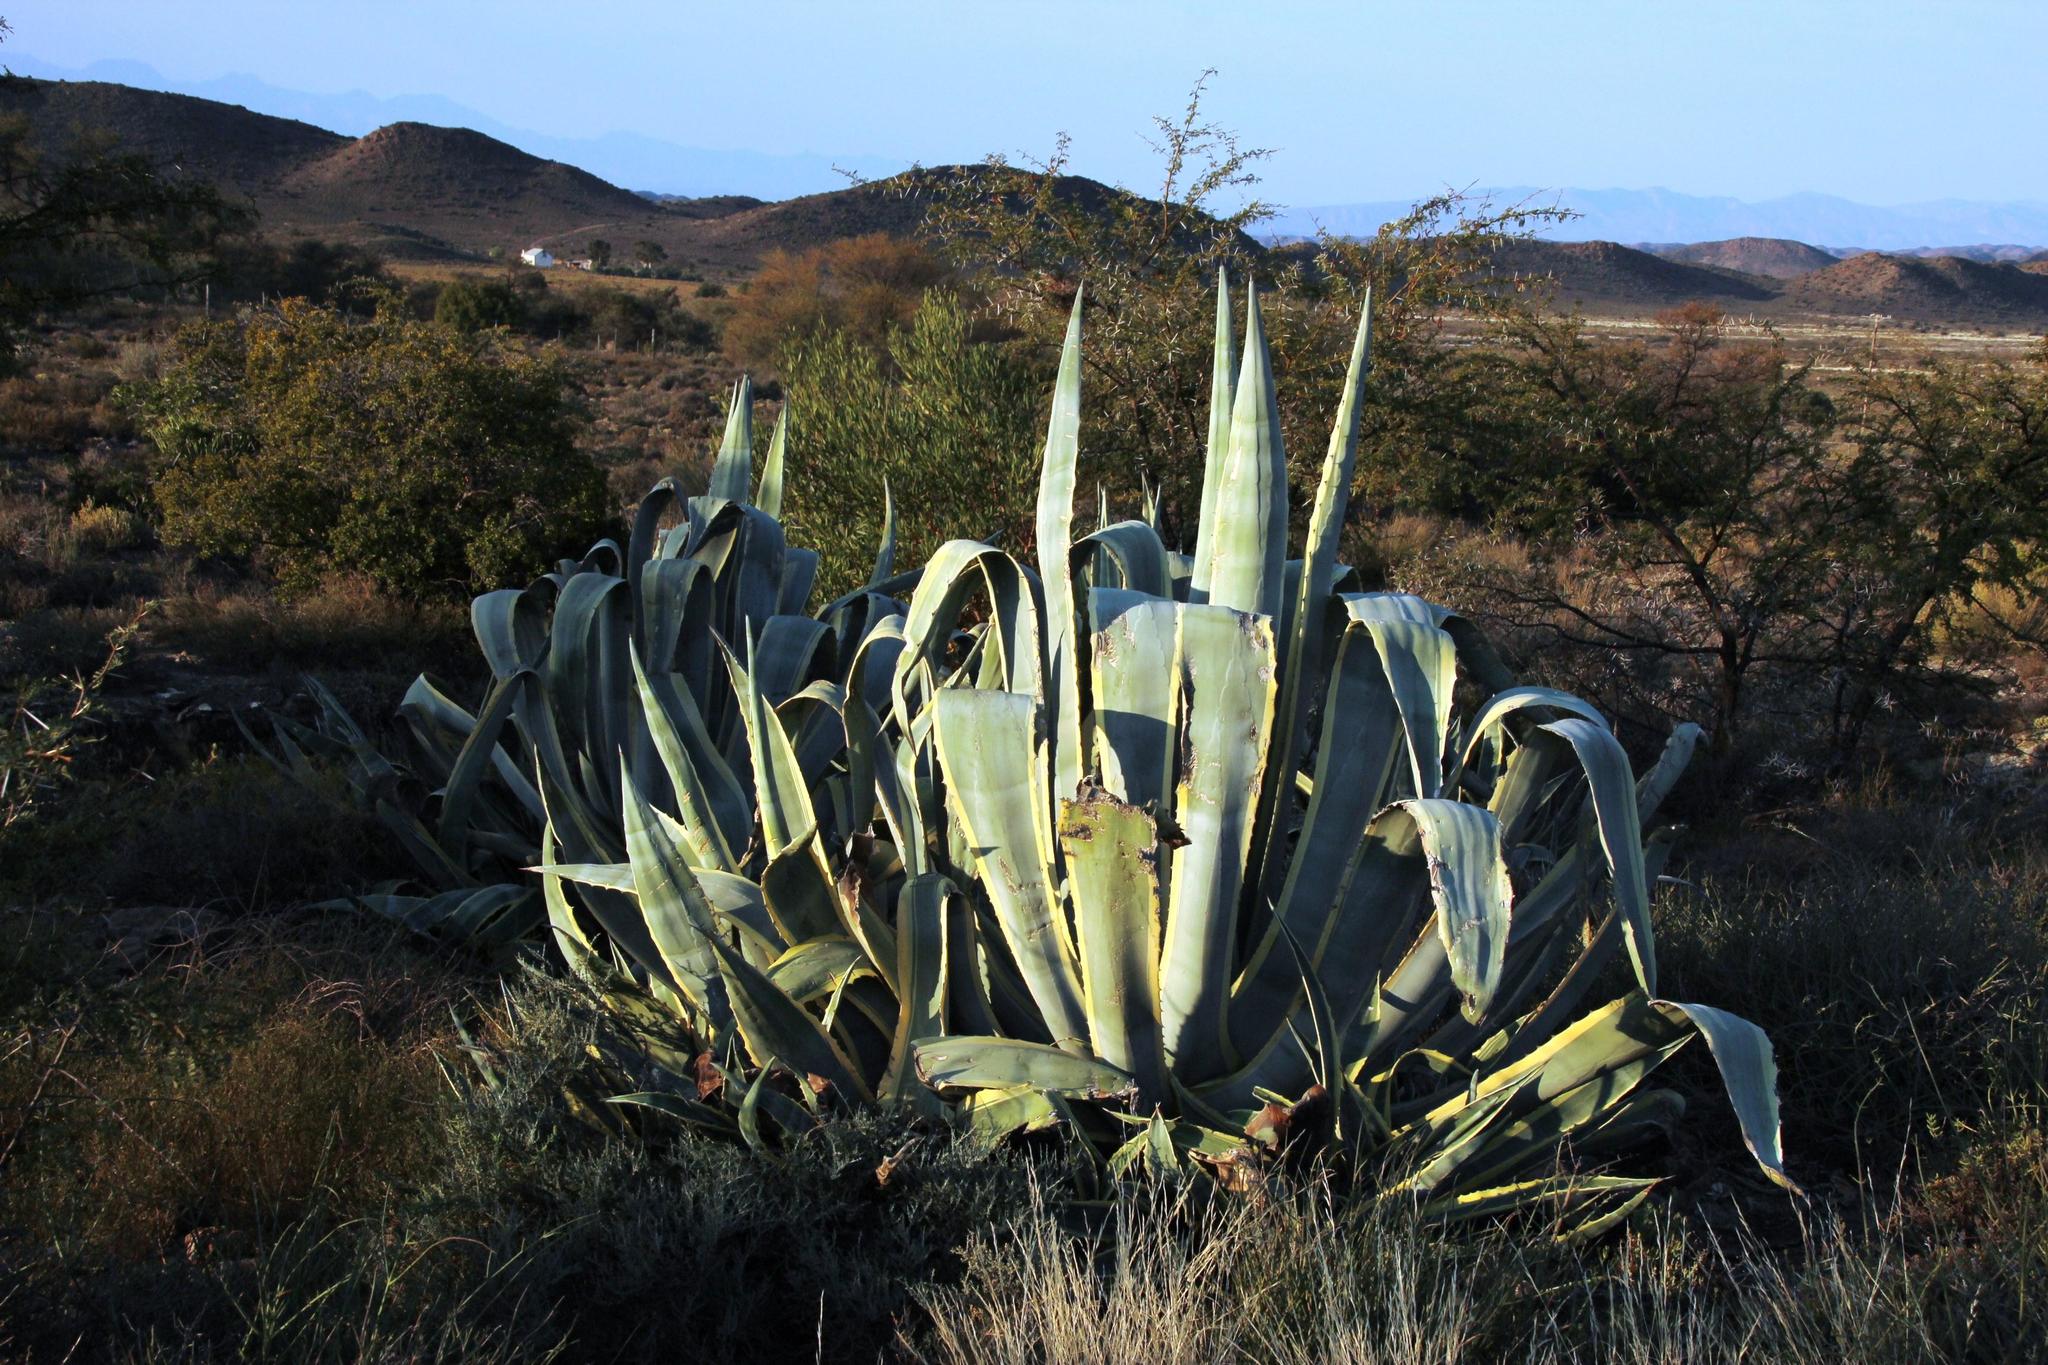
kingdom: Plantae
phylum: Tracheophyta
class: Liliopsida
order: Asparagales
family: Asparagaceae
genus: Agave
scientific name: Agave americana
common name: Centuryplant
